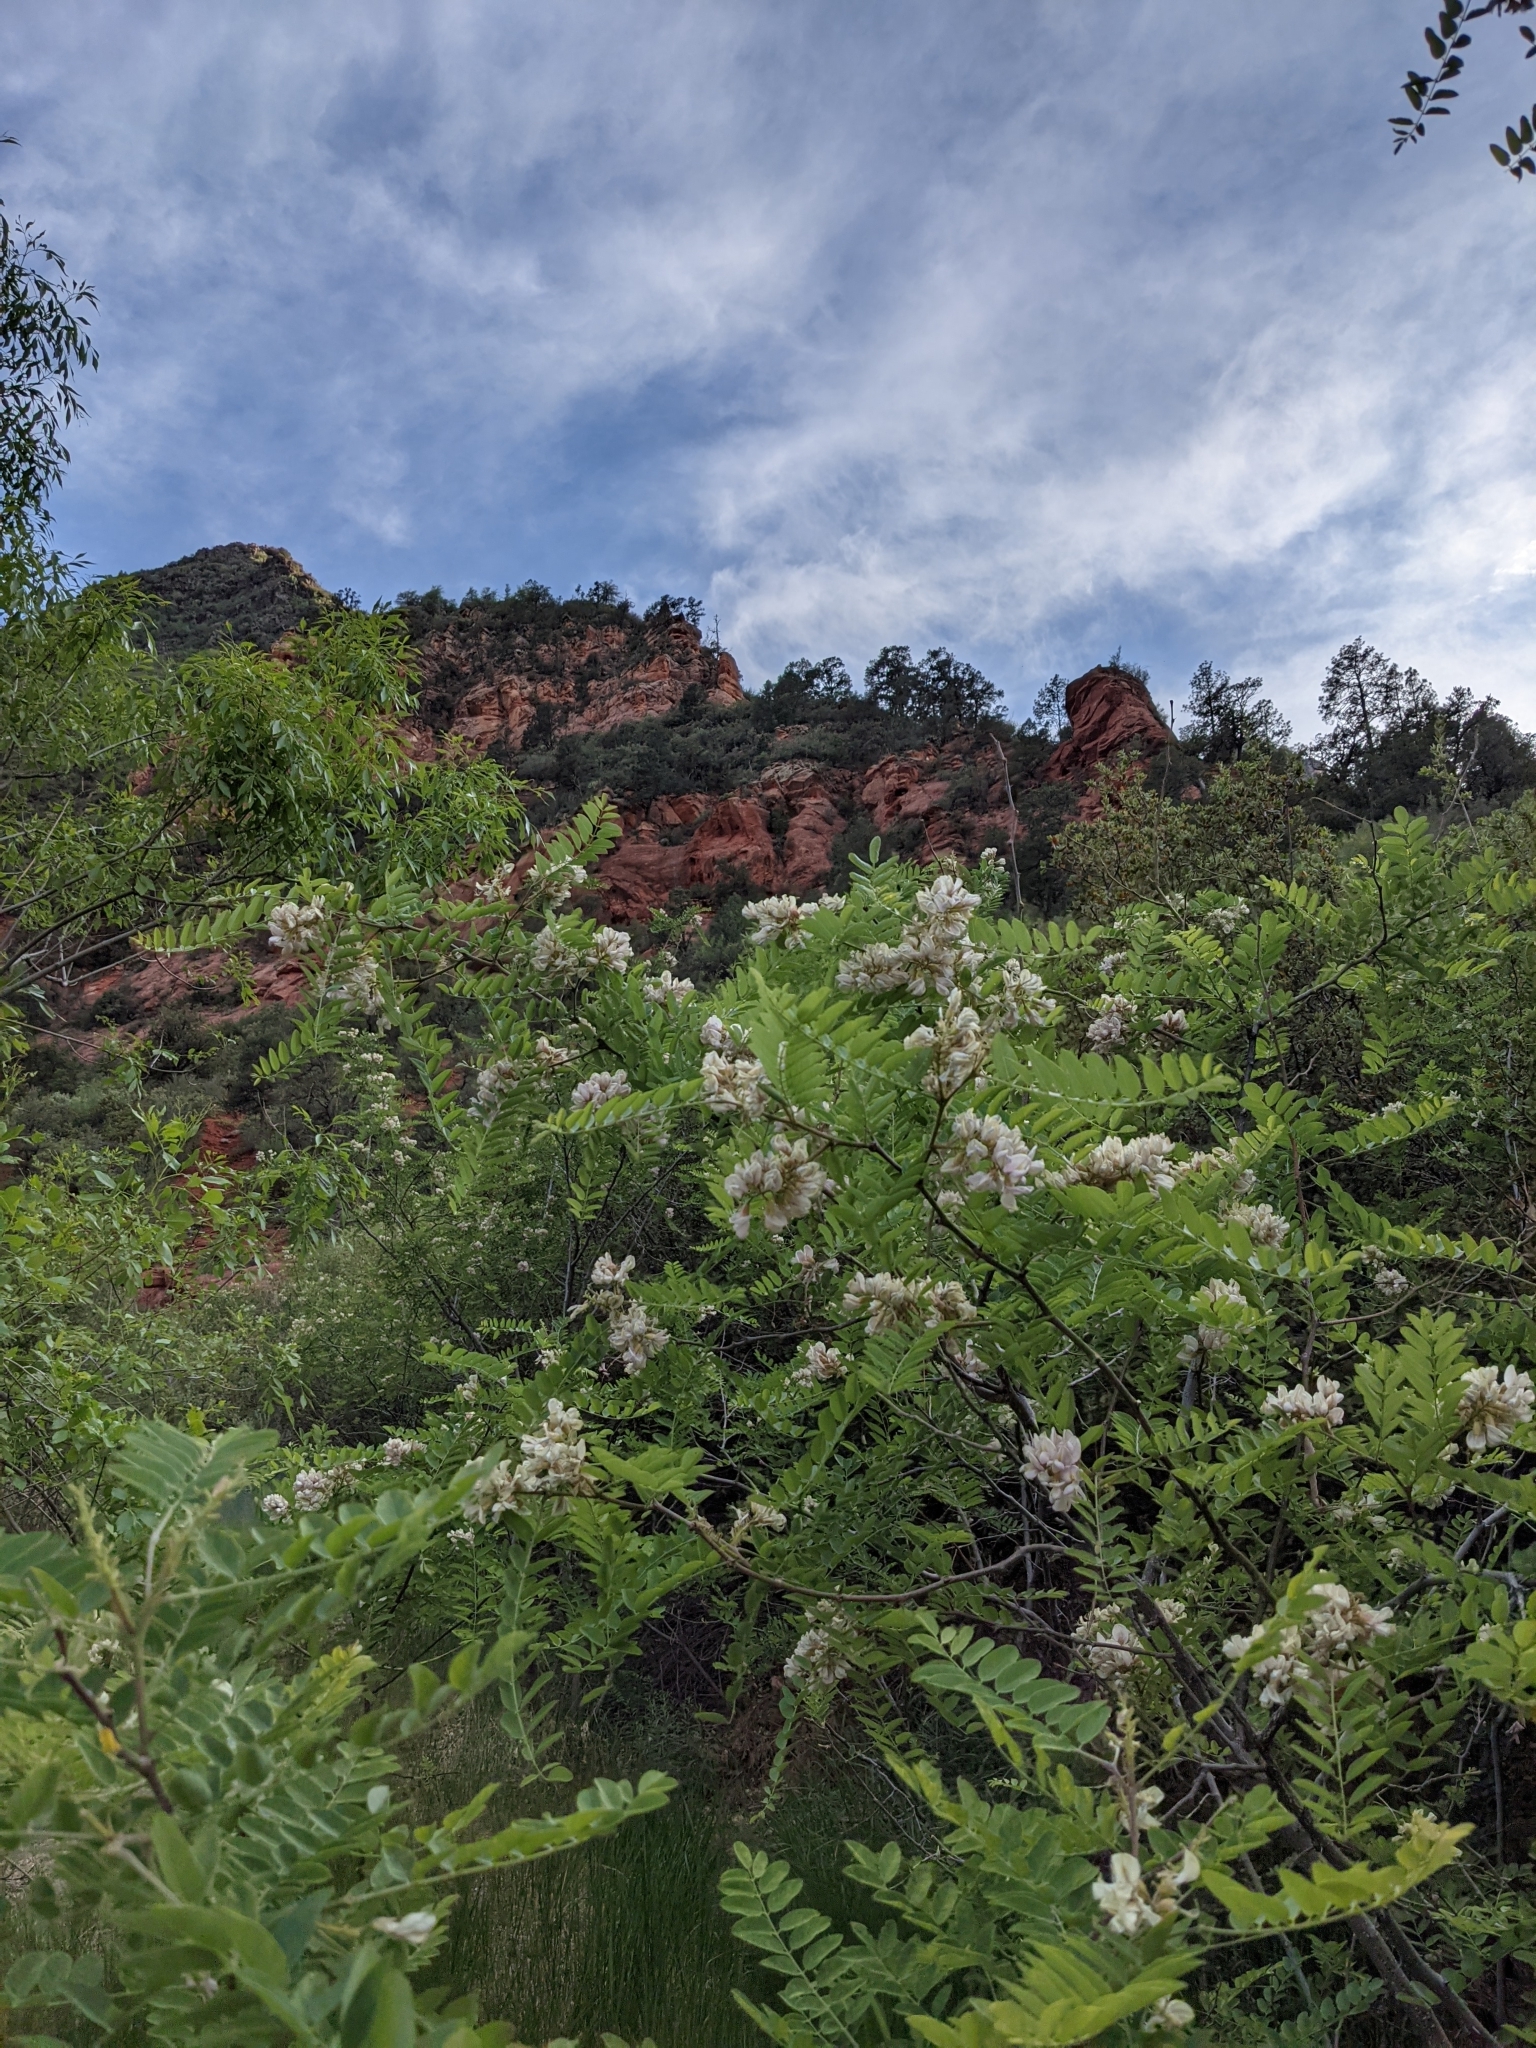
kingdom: Plantae
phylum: Tracheophyta
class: Magnoliopsida
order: Fabales
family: Fabaceae
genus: Robinia
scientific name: Robinia neomexicana
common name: New mexico locust
